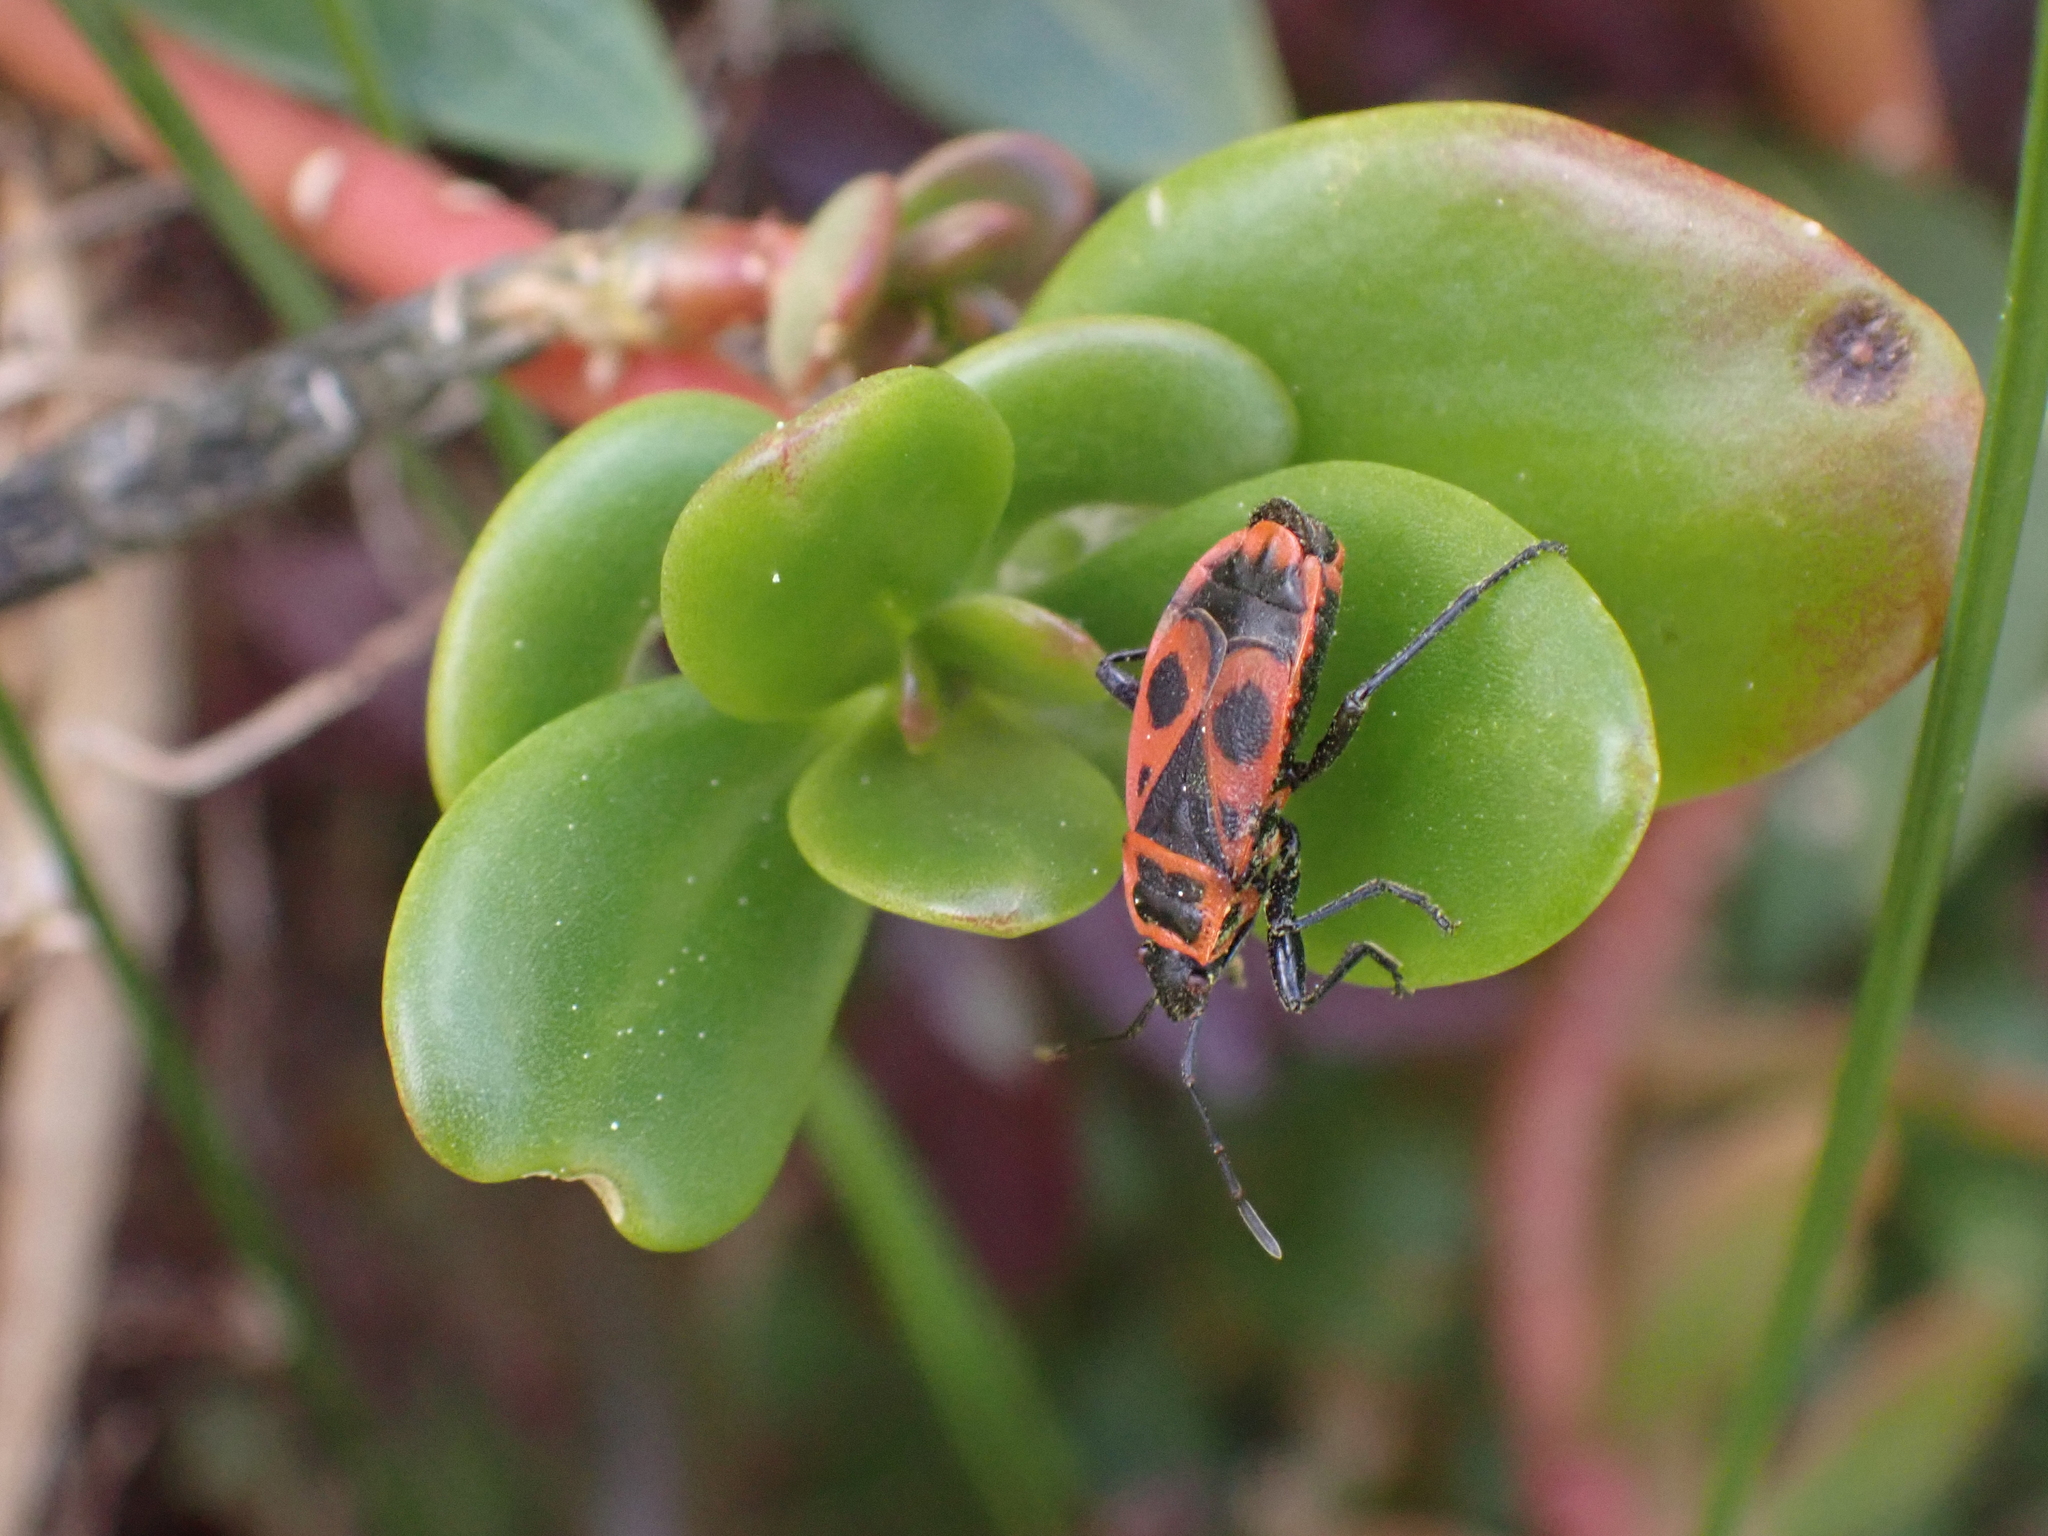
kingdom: Animalia
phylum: Arthropoda
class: Insecta
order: Hemiptera
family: Pyrrhocoridae
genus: Pyrrhocoris
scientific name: Pyrrhocoris apterus
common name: Firebug
